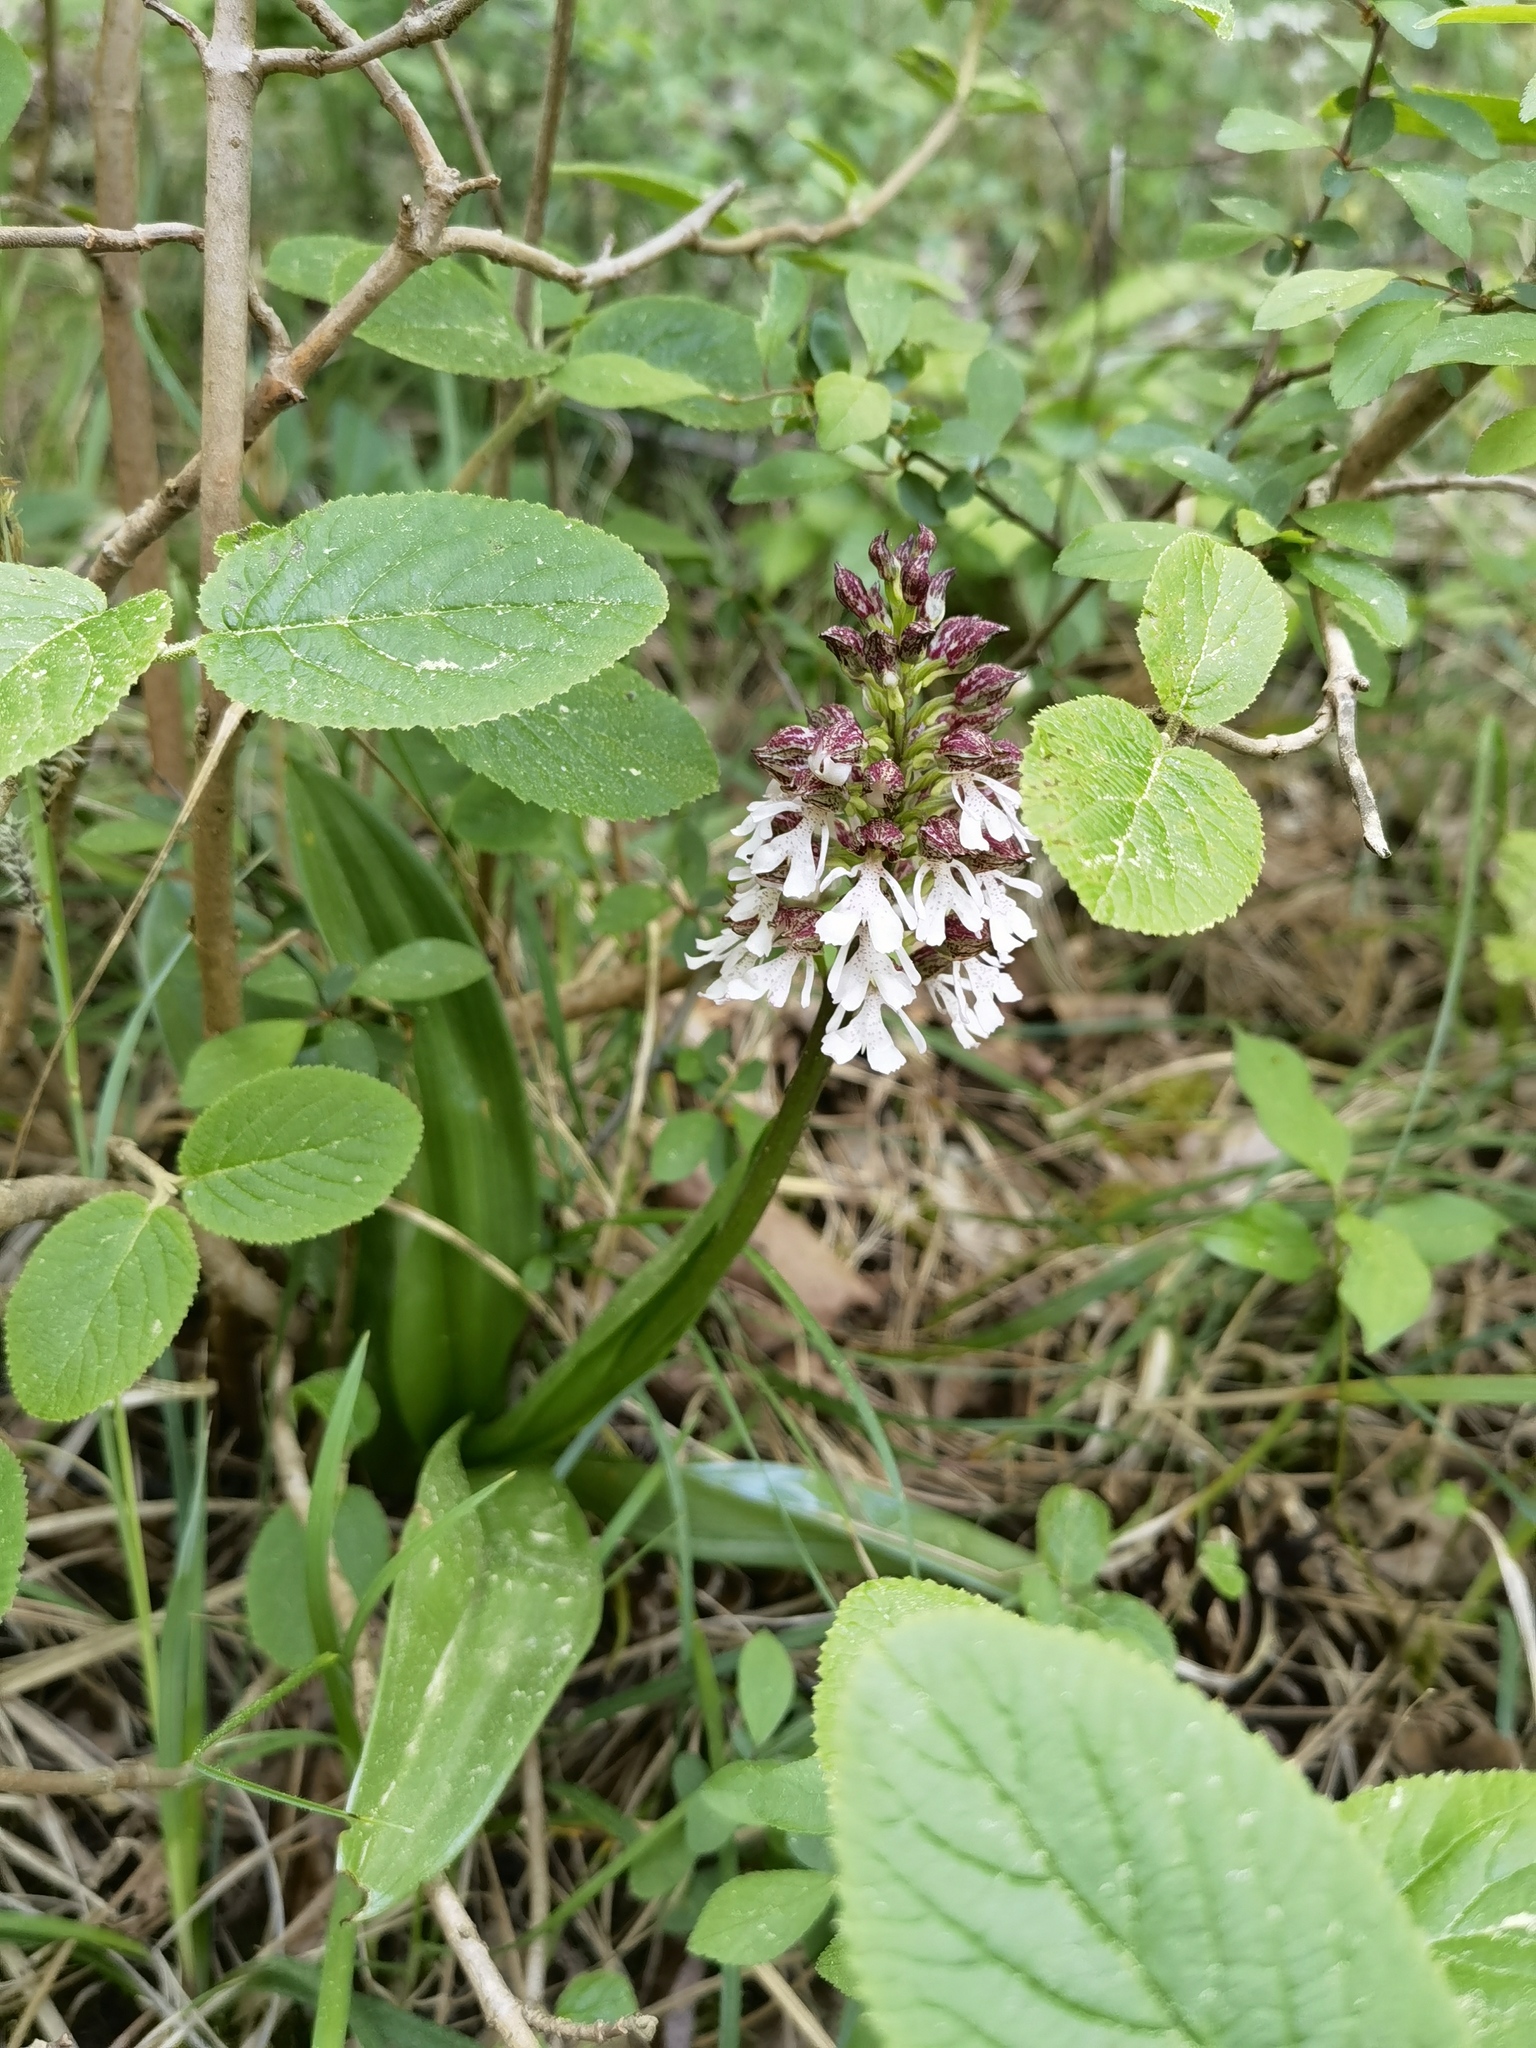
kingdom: Plantae
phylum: Tracheophyta
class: Liliopsida
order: Asparagales
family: Orchidaceae
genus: Orchis
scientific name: Orchis purpurea
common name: Lady orchid
